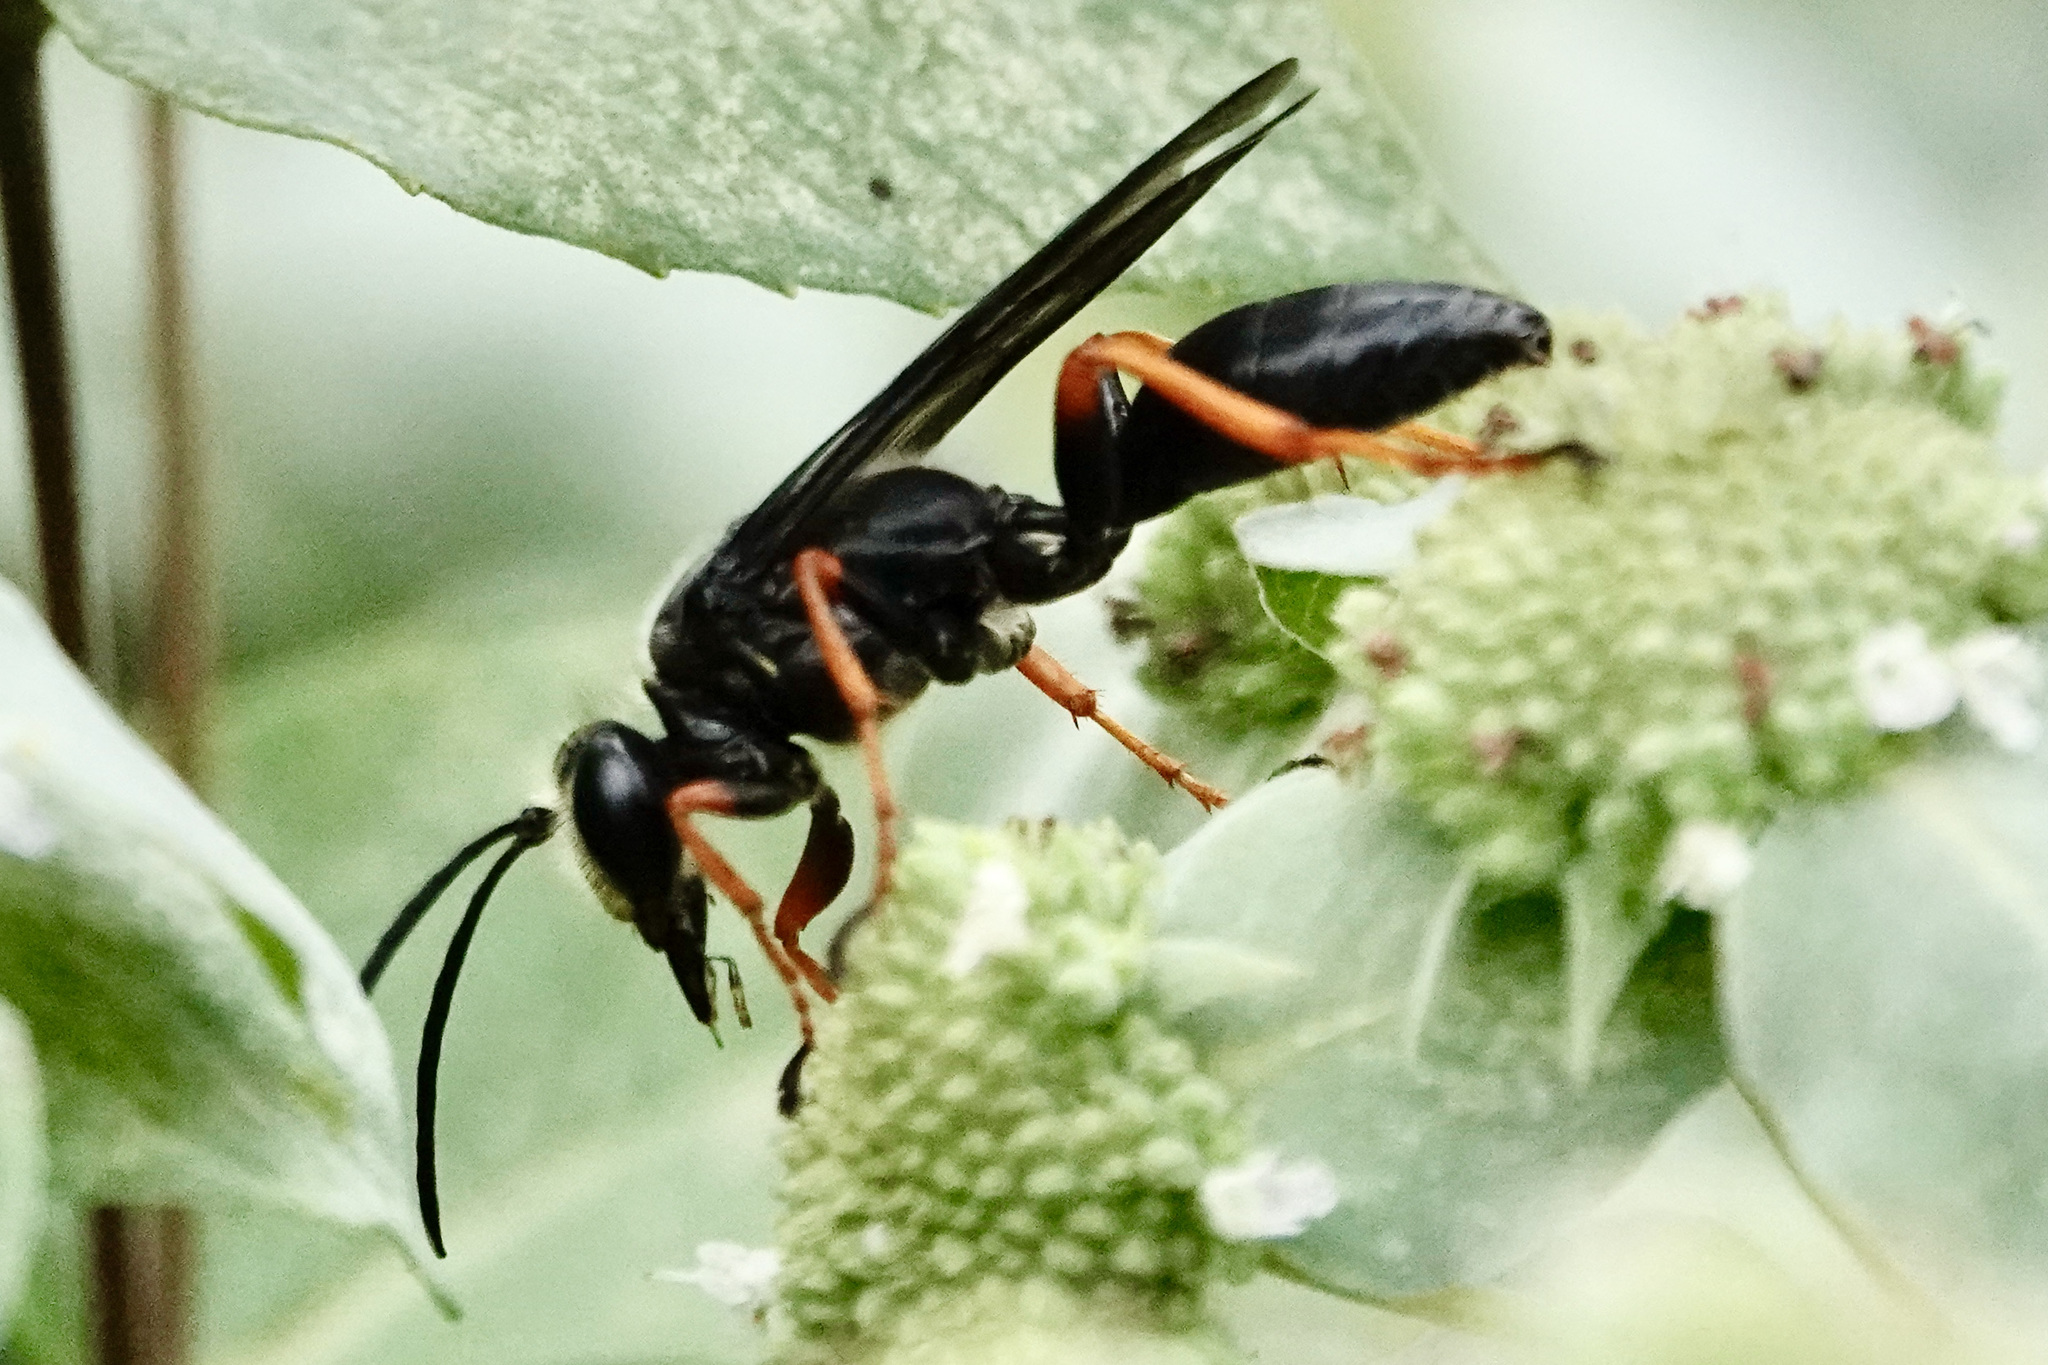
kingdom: Animalia
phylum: Arthropoda
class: Insecta
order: Hymenoptera
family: Sphecidae
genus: Sphex
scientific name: Sphex nudus
